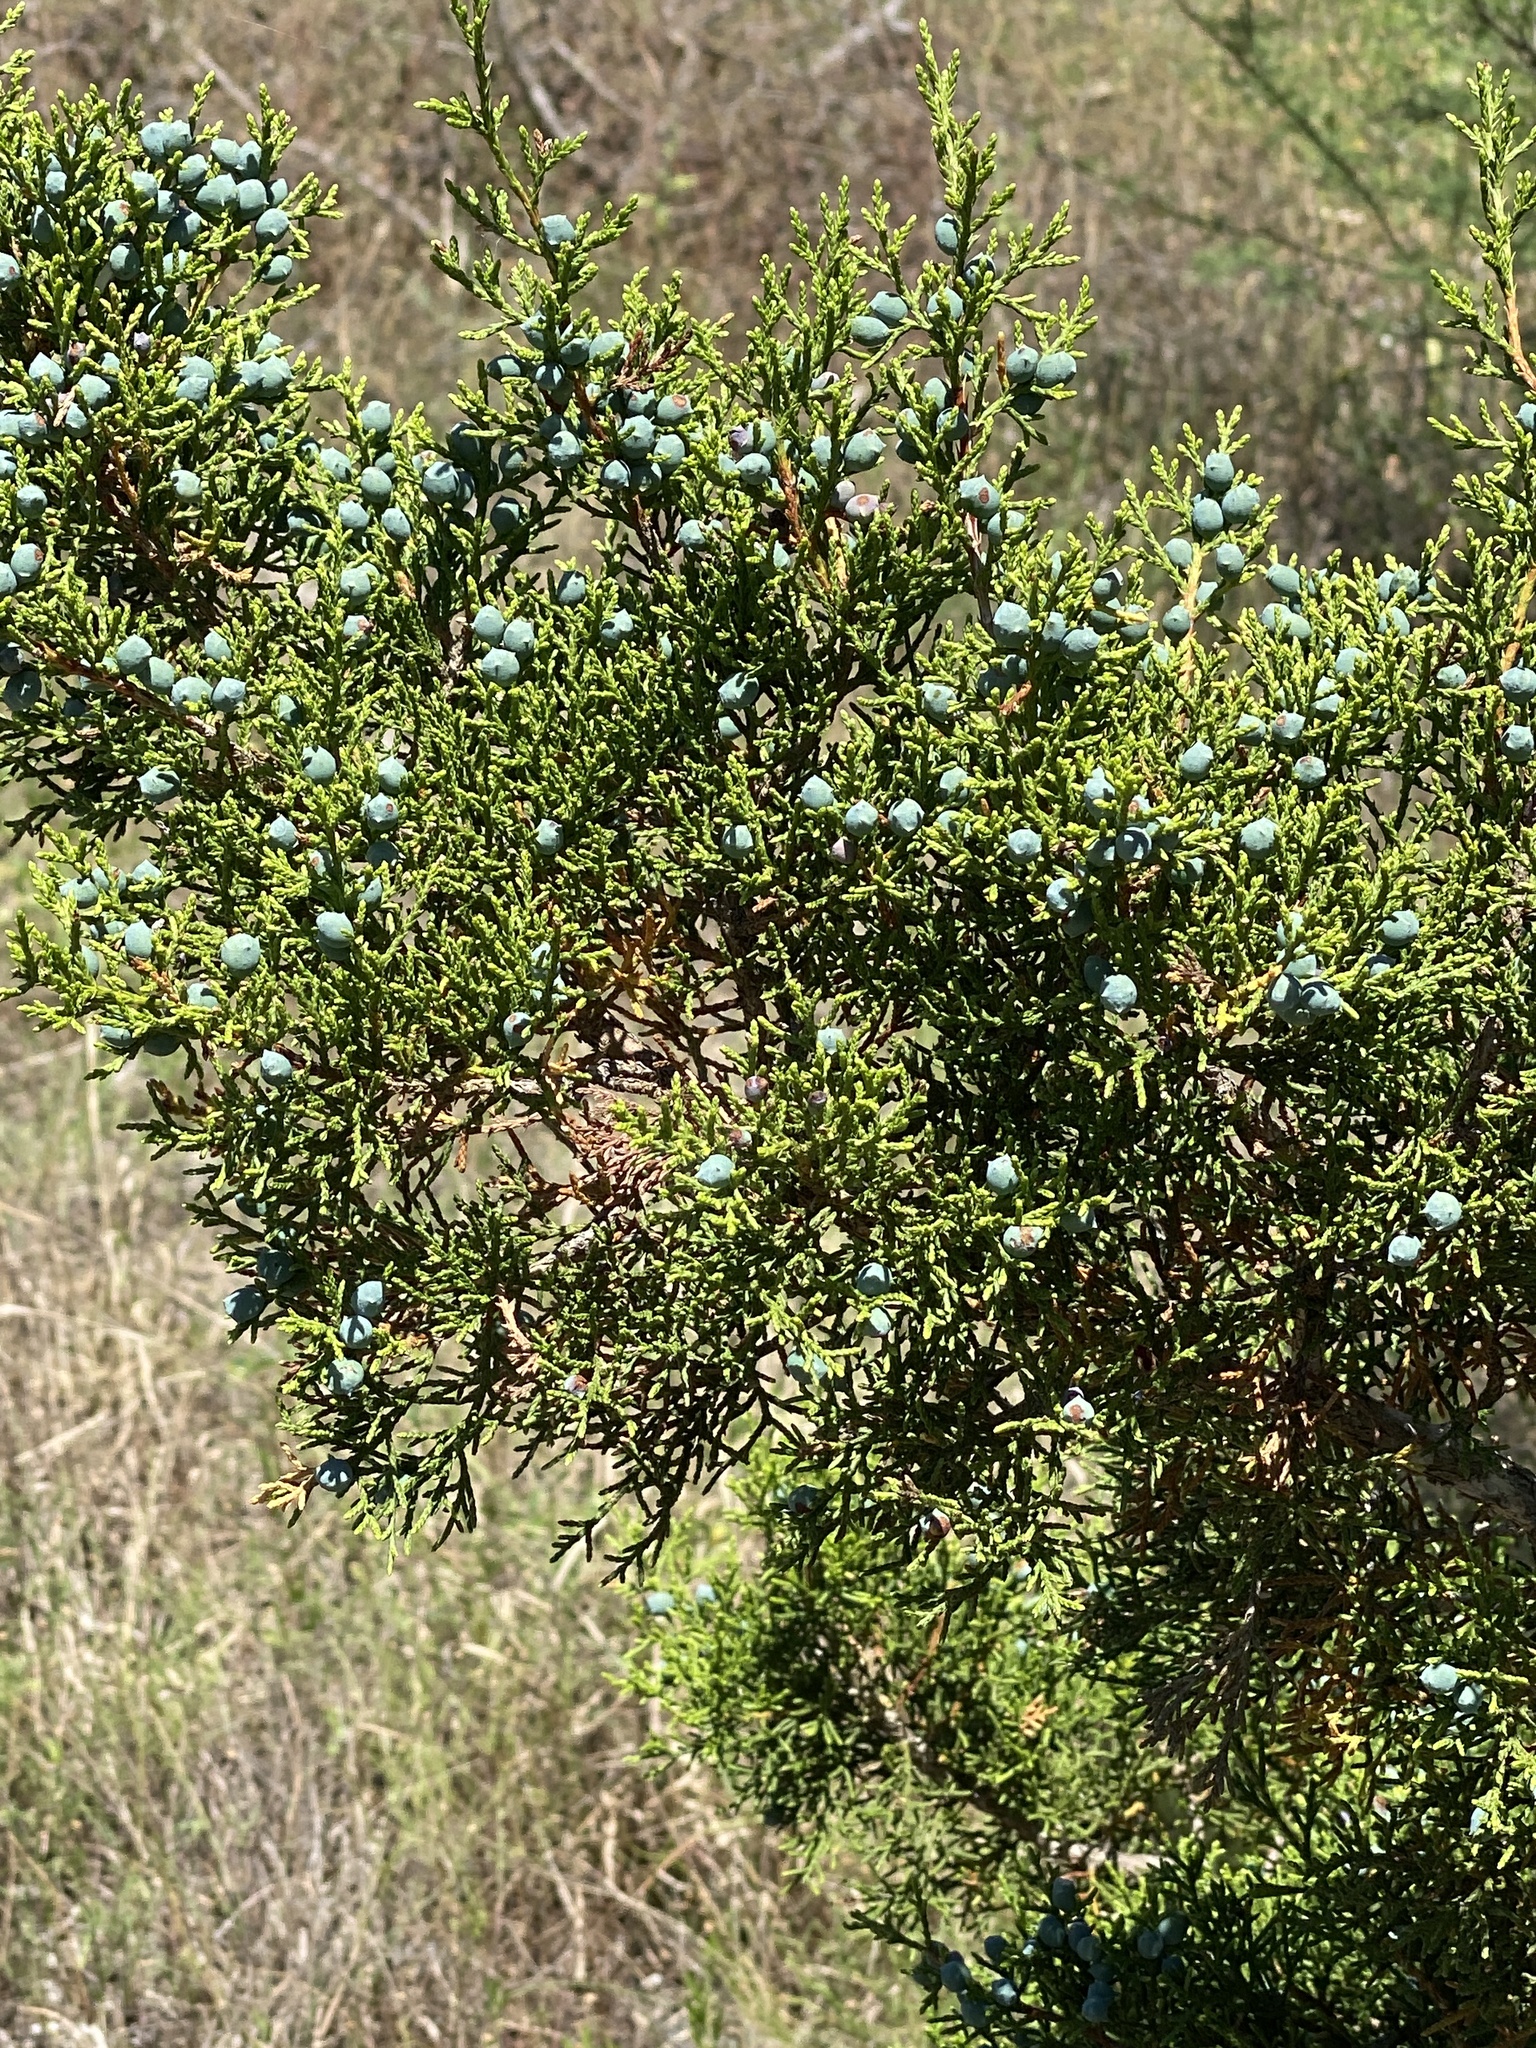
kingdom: Plantae
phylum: Tracheophyta
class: Pinopsida
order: Pinales
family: Cupressaceae
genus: Juniperus
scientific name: Juniperus ashei
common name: Mexican juniper
